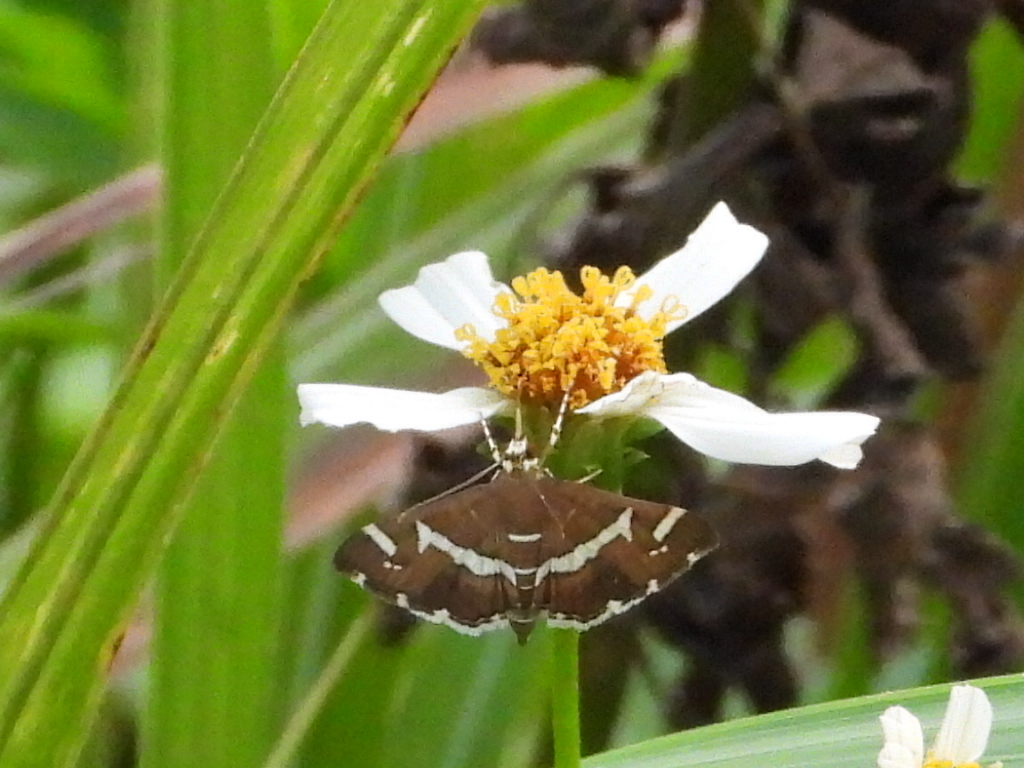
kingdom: Animalia
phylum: Arthropoda
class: Insecta
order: Lepidoptera
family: Crambidae
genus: Spoladea
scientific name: Spoladea recurvalis
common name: Beet webworm moth
